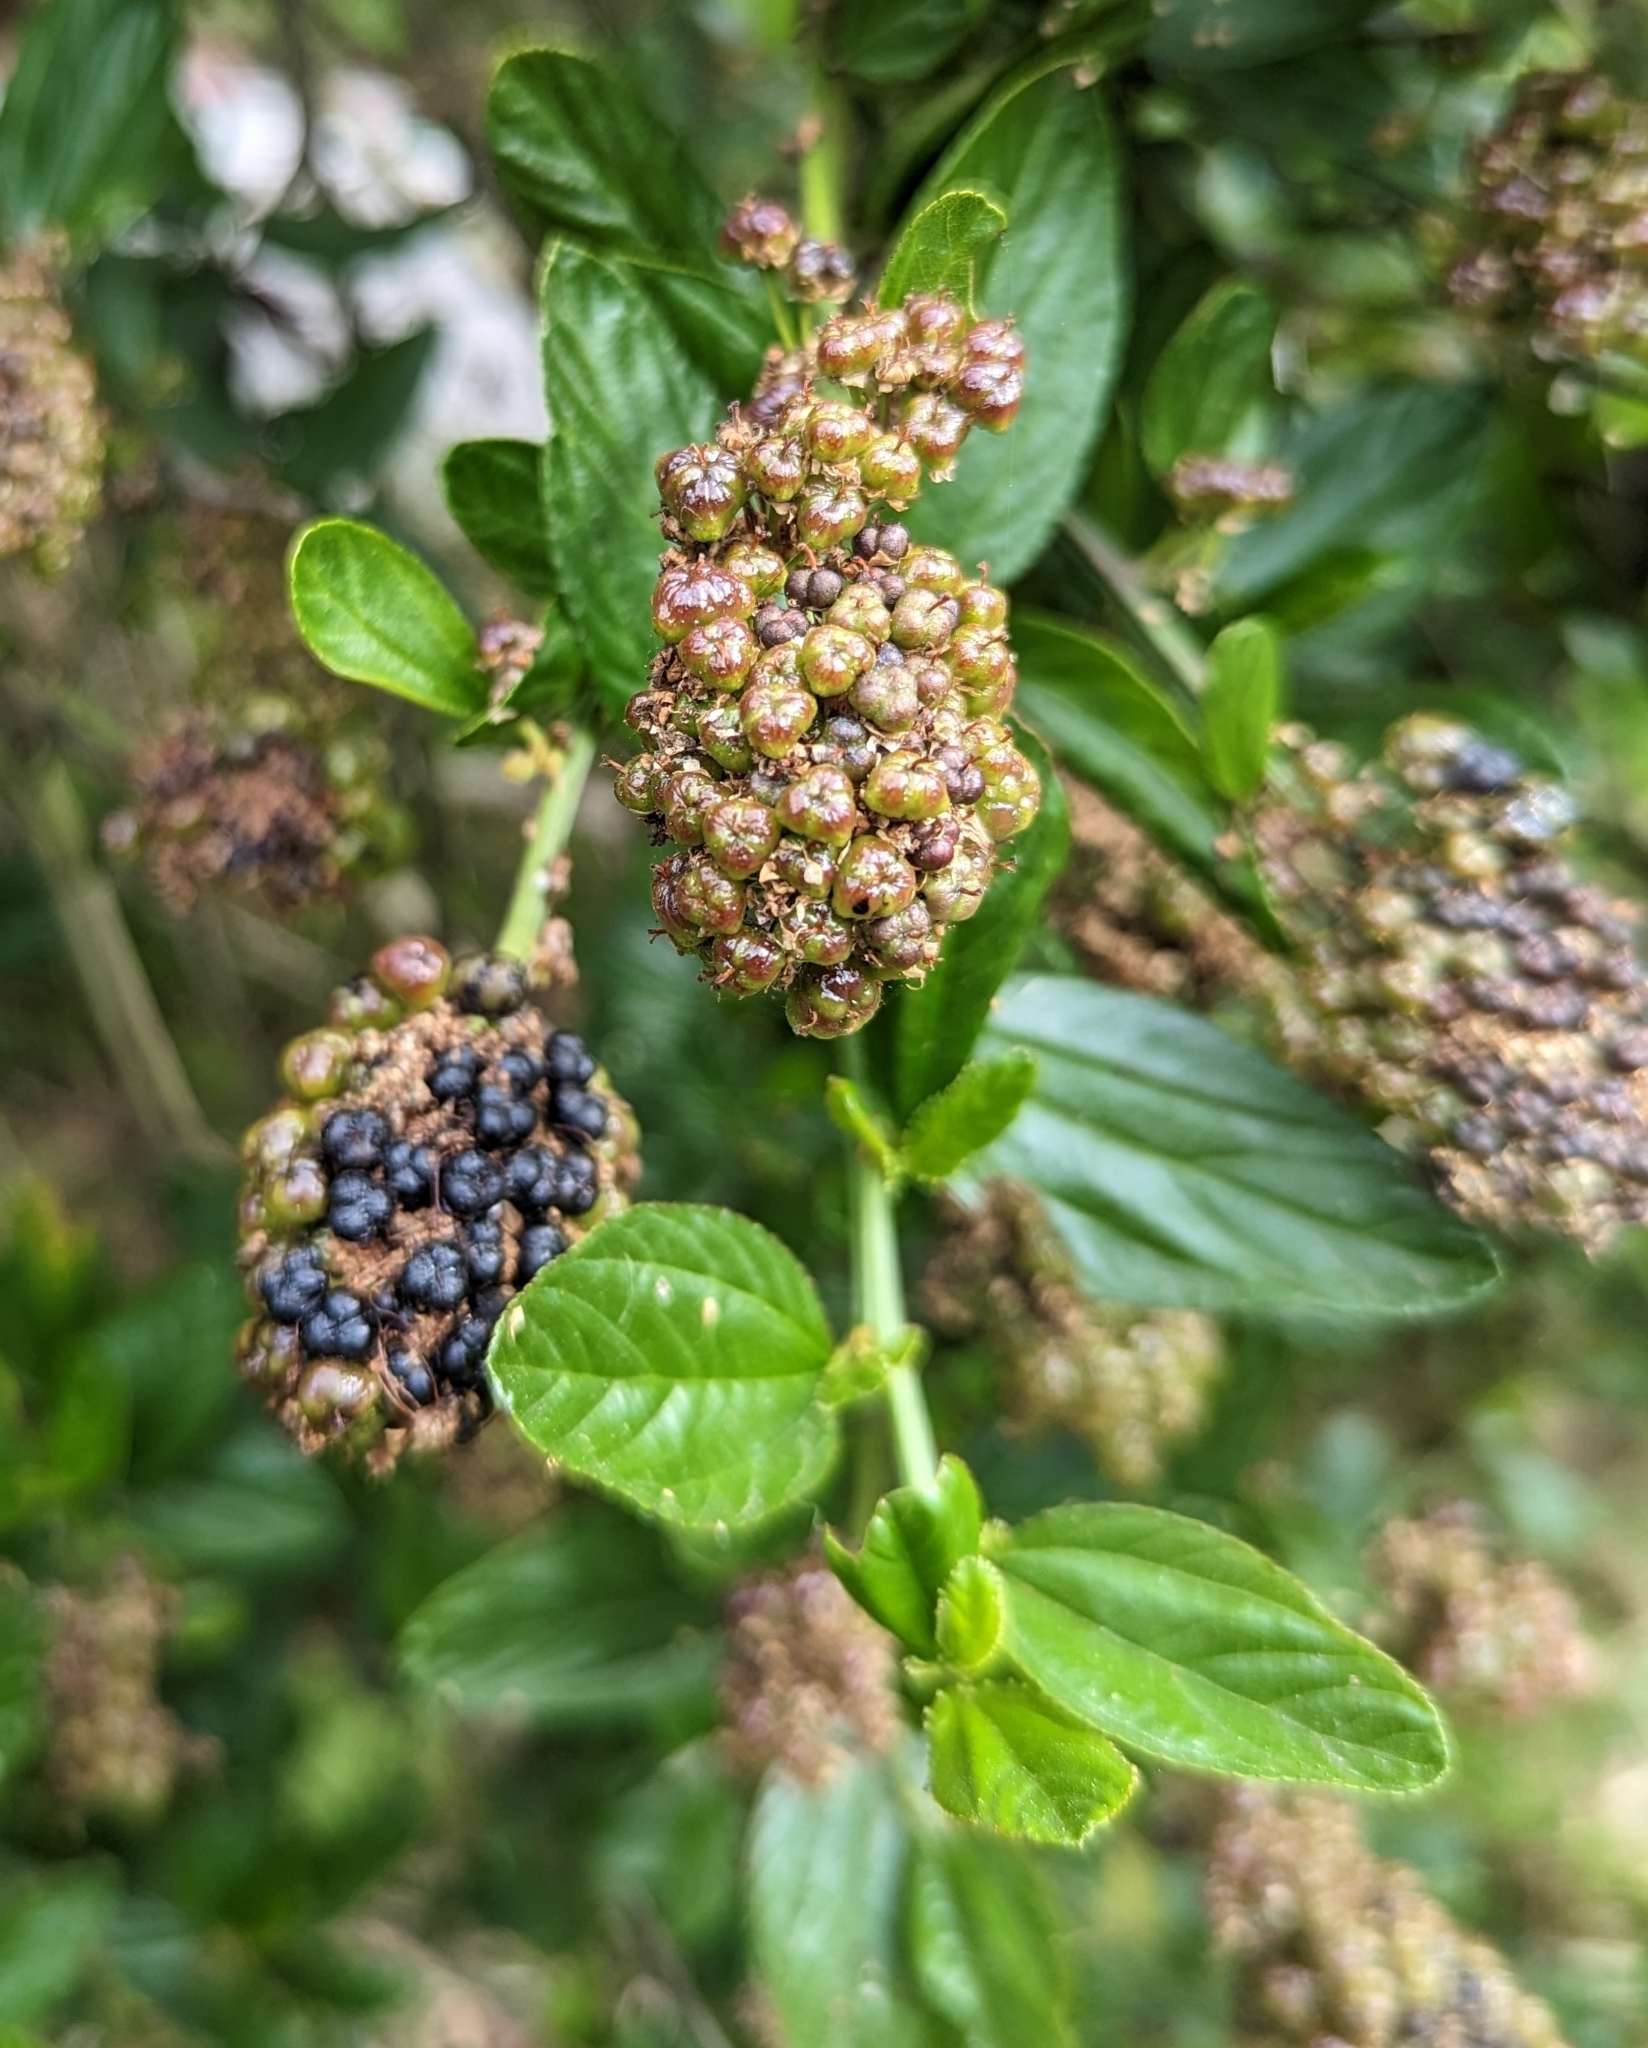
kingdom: Plantae
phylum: Tracheophyta
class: Magnoliopsida
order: Rosales
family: Rhamnaceae
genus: Ceanothus
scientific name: Ceanothus thyrsiflorus
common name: California-lilac
